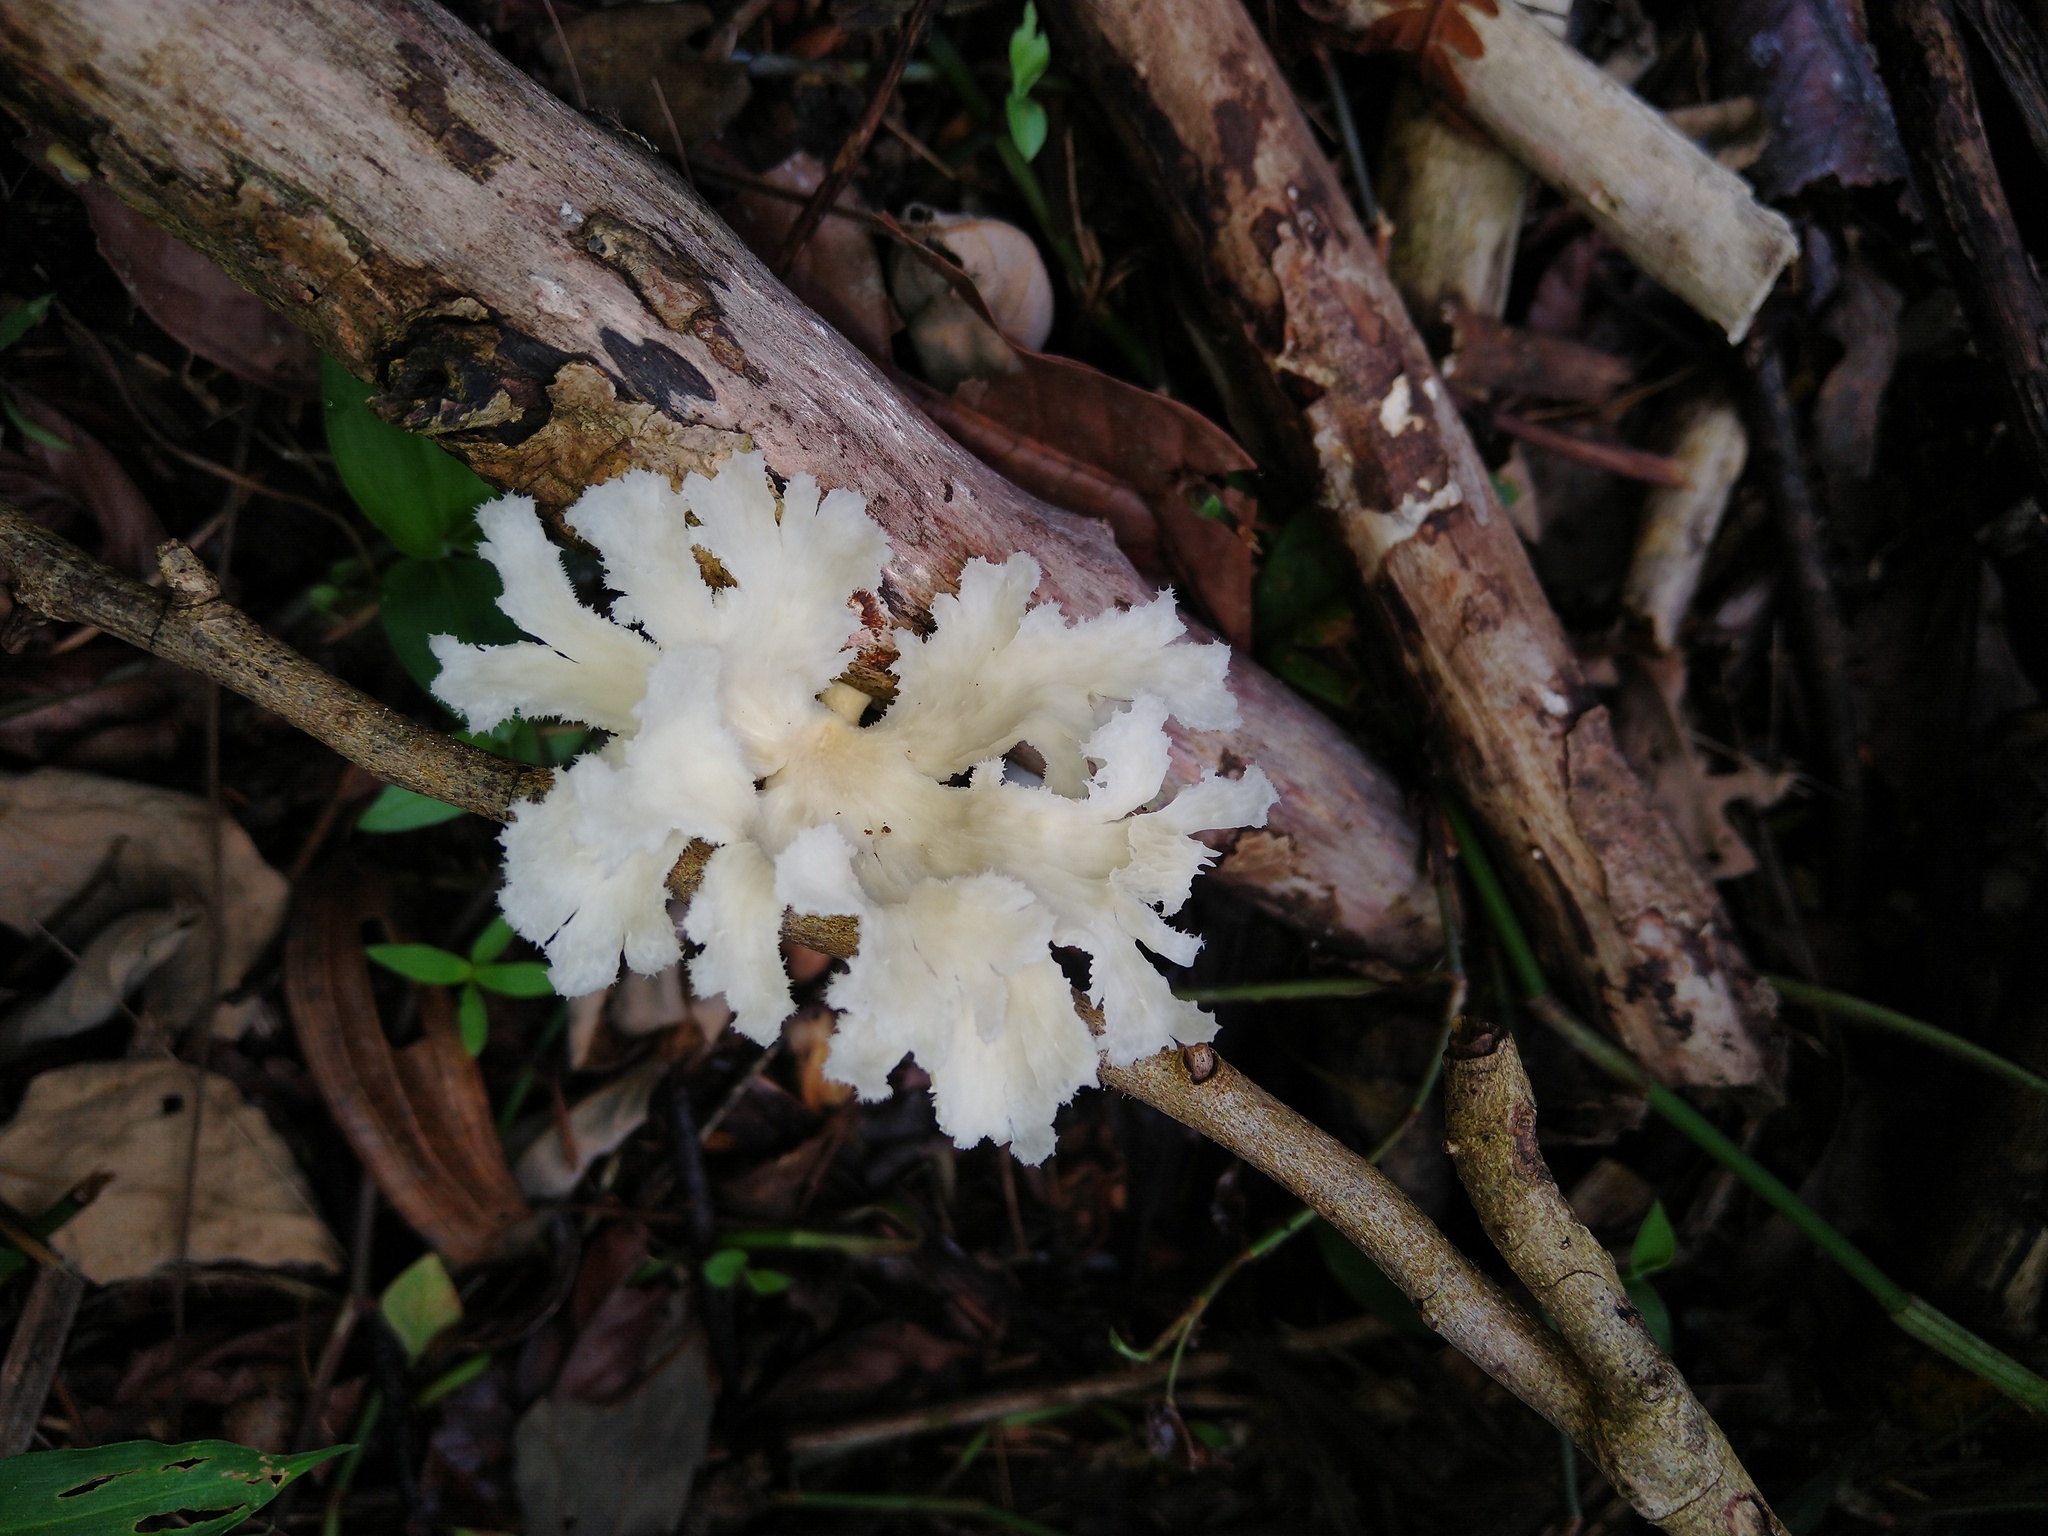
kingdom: Fungi
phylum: Basidiomycota
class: Agaricomycetes
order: Polyporales
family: Polyporaceae
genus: Favolus
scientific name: Favolus tenuiculus
